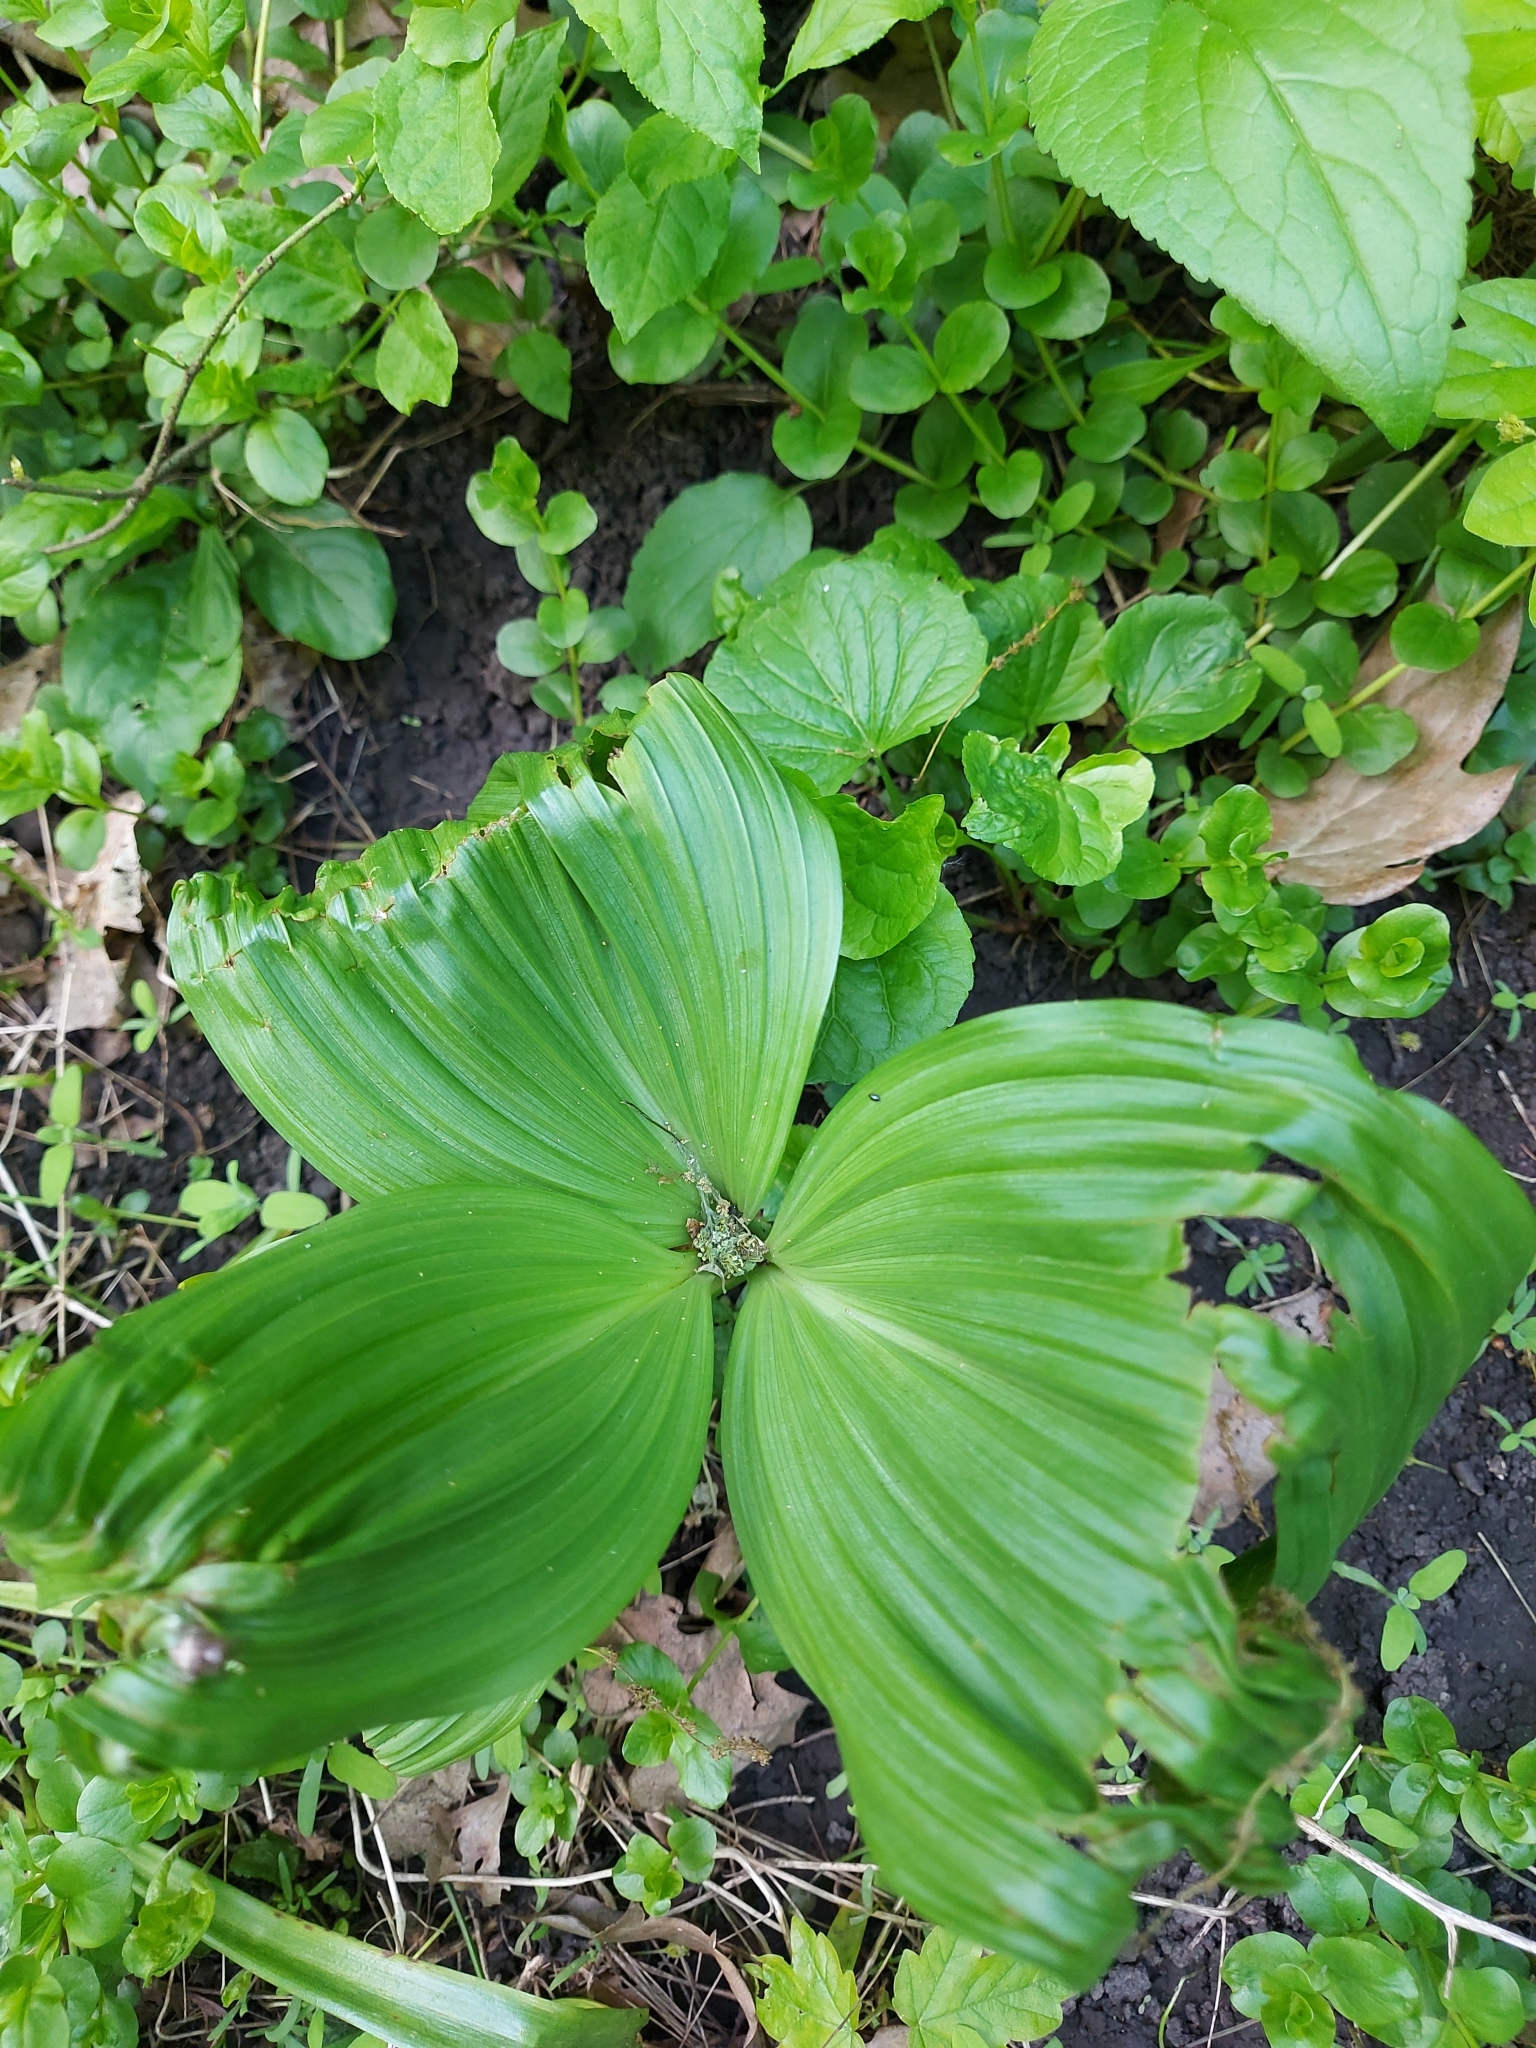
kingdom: Plantae
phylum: Tracheophyta
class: Liliopsida
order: Liliales
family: Melanthiaceae
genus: Veratrum
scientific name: Veratrum lobelianum
